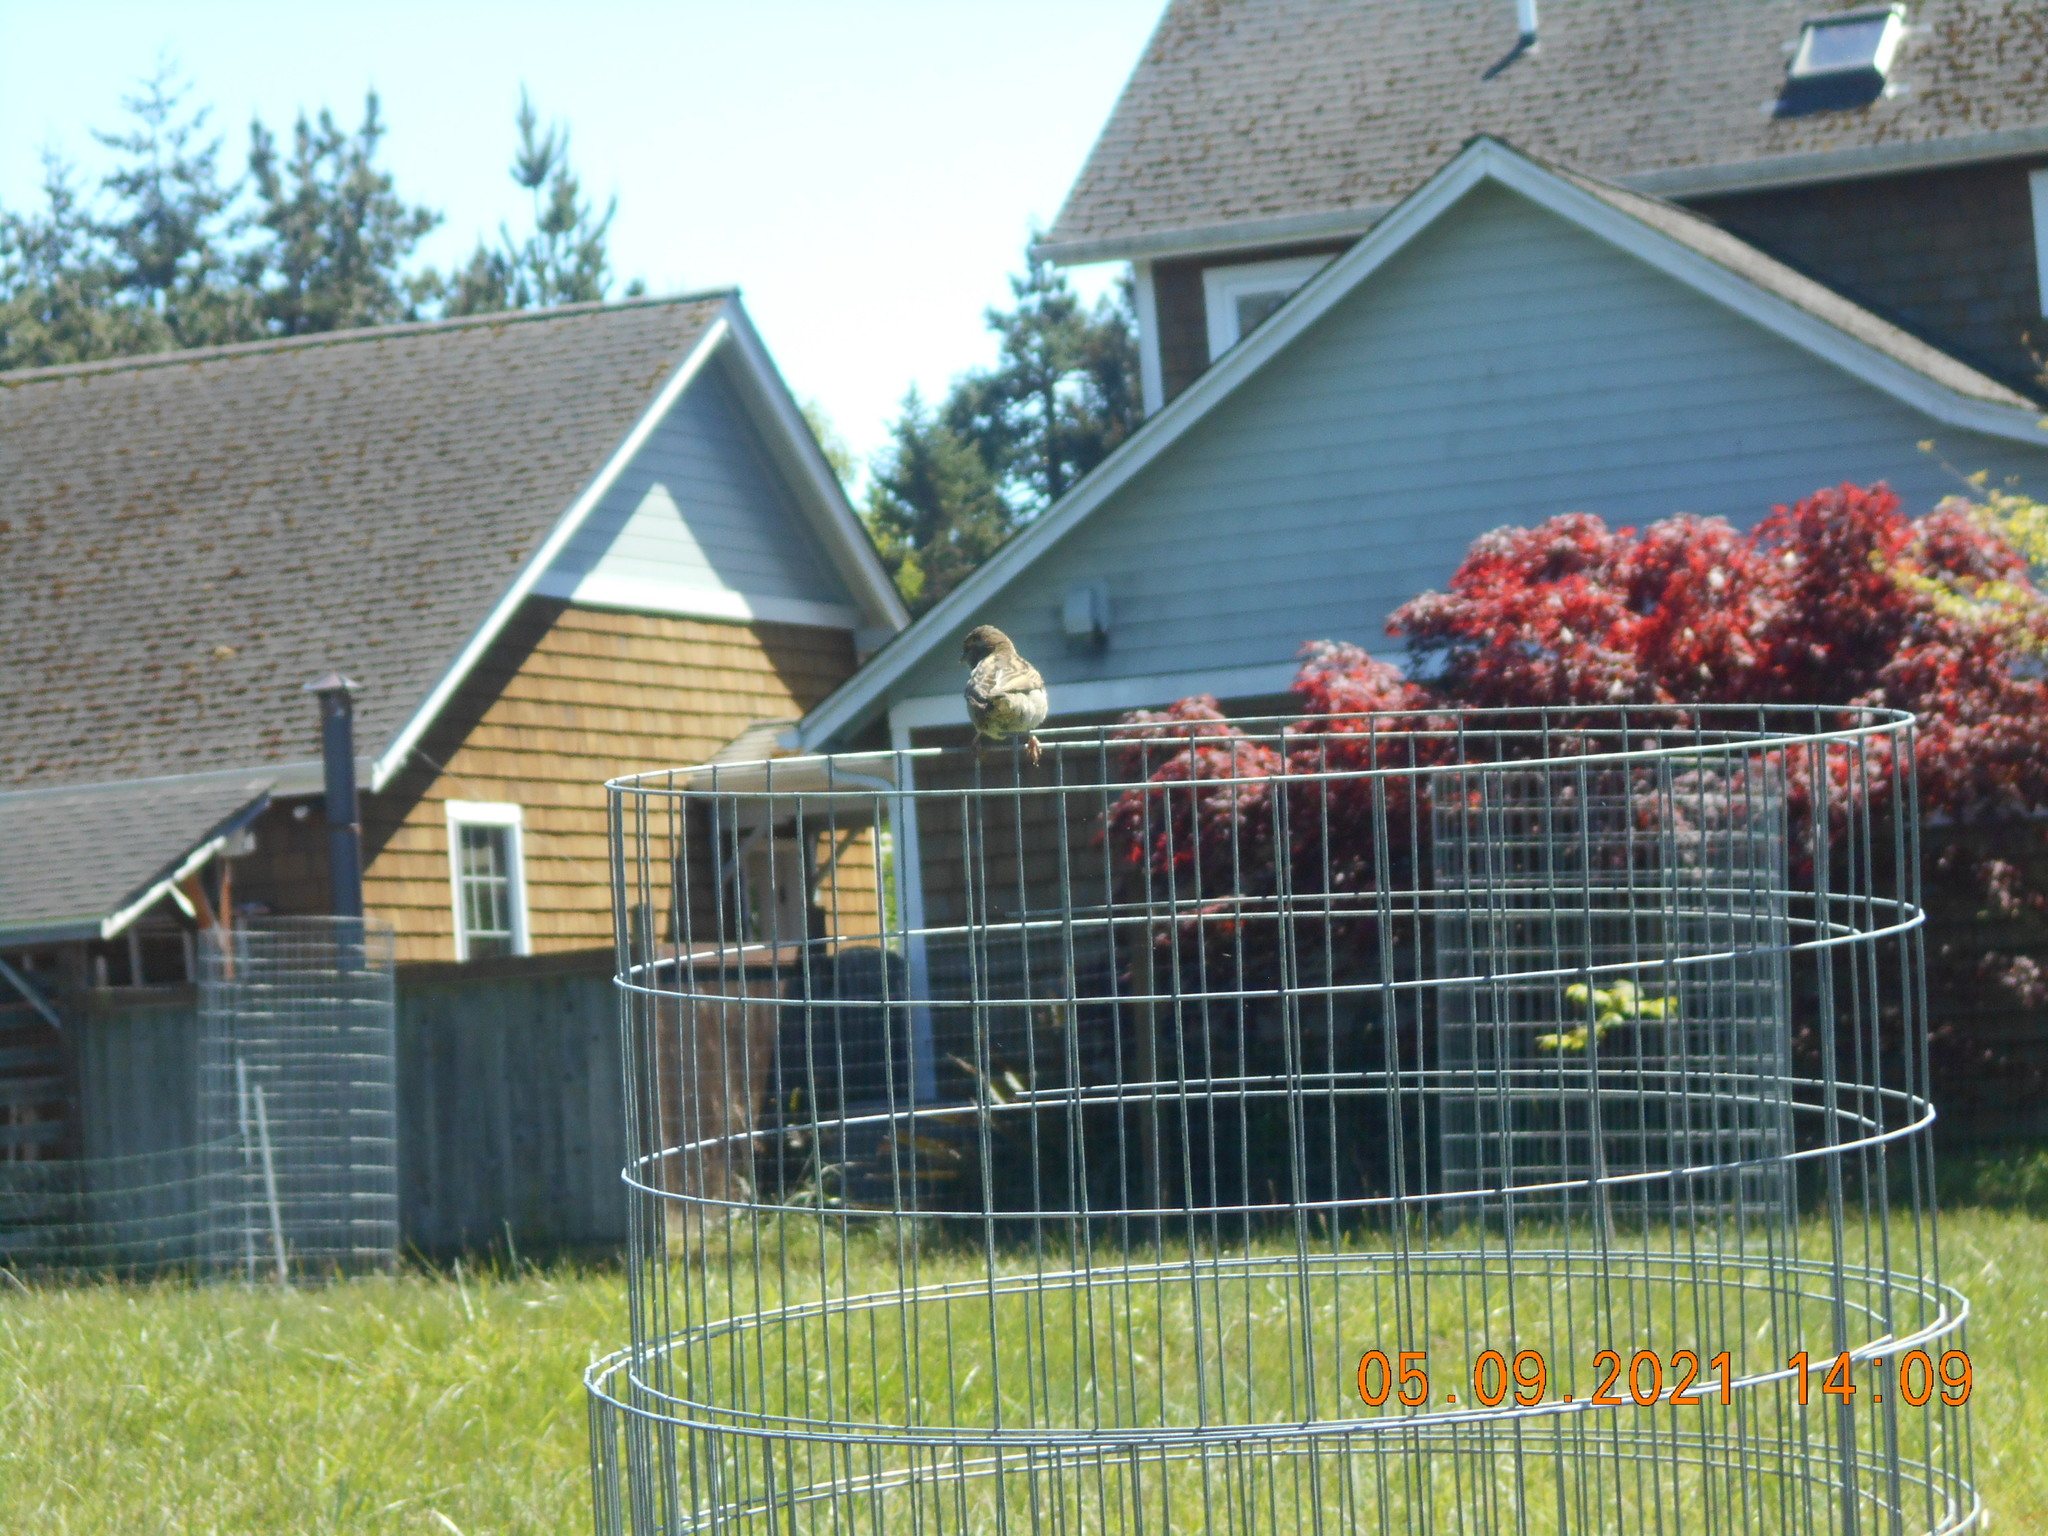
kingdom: Animalia
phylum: Chordata
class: Aves
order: Passeriformes
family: Passeridae
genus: Passer
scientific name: Passer domesticus
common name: House sparrow
